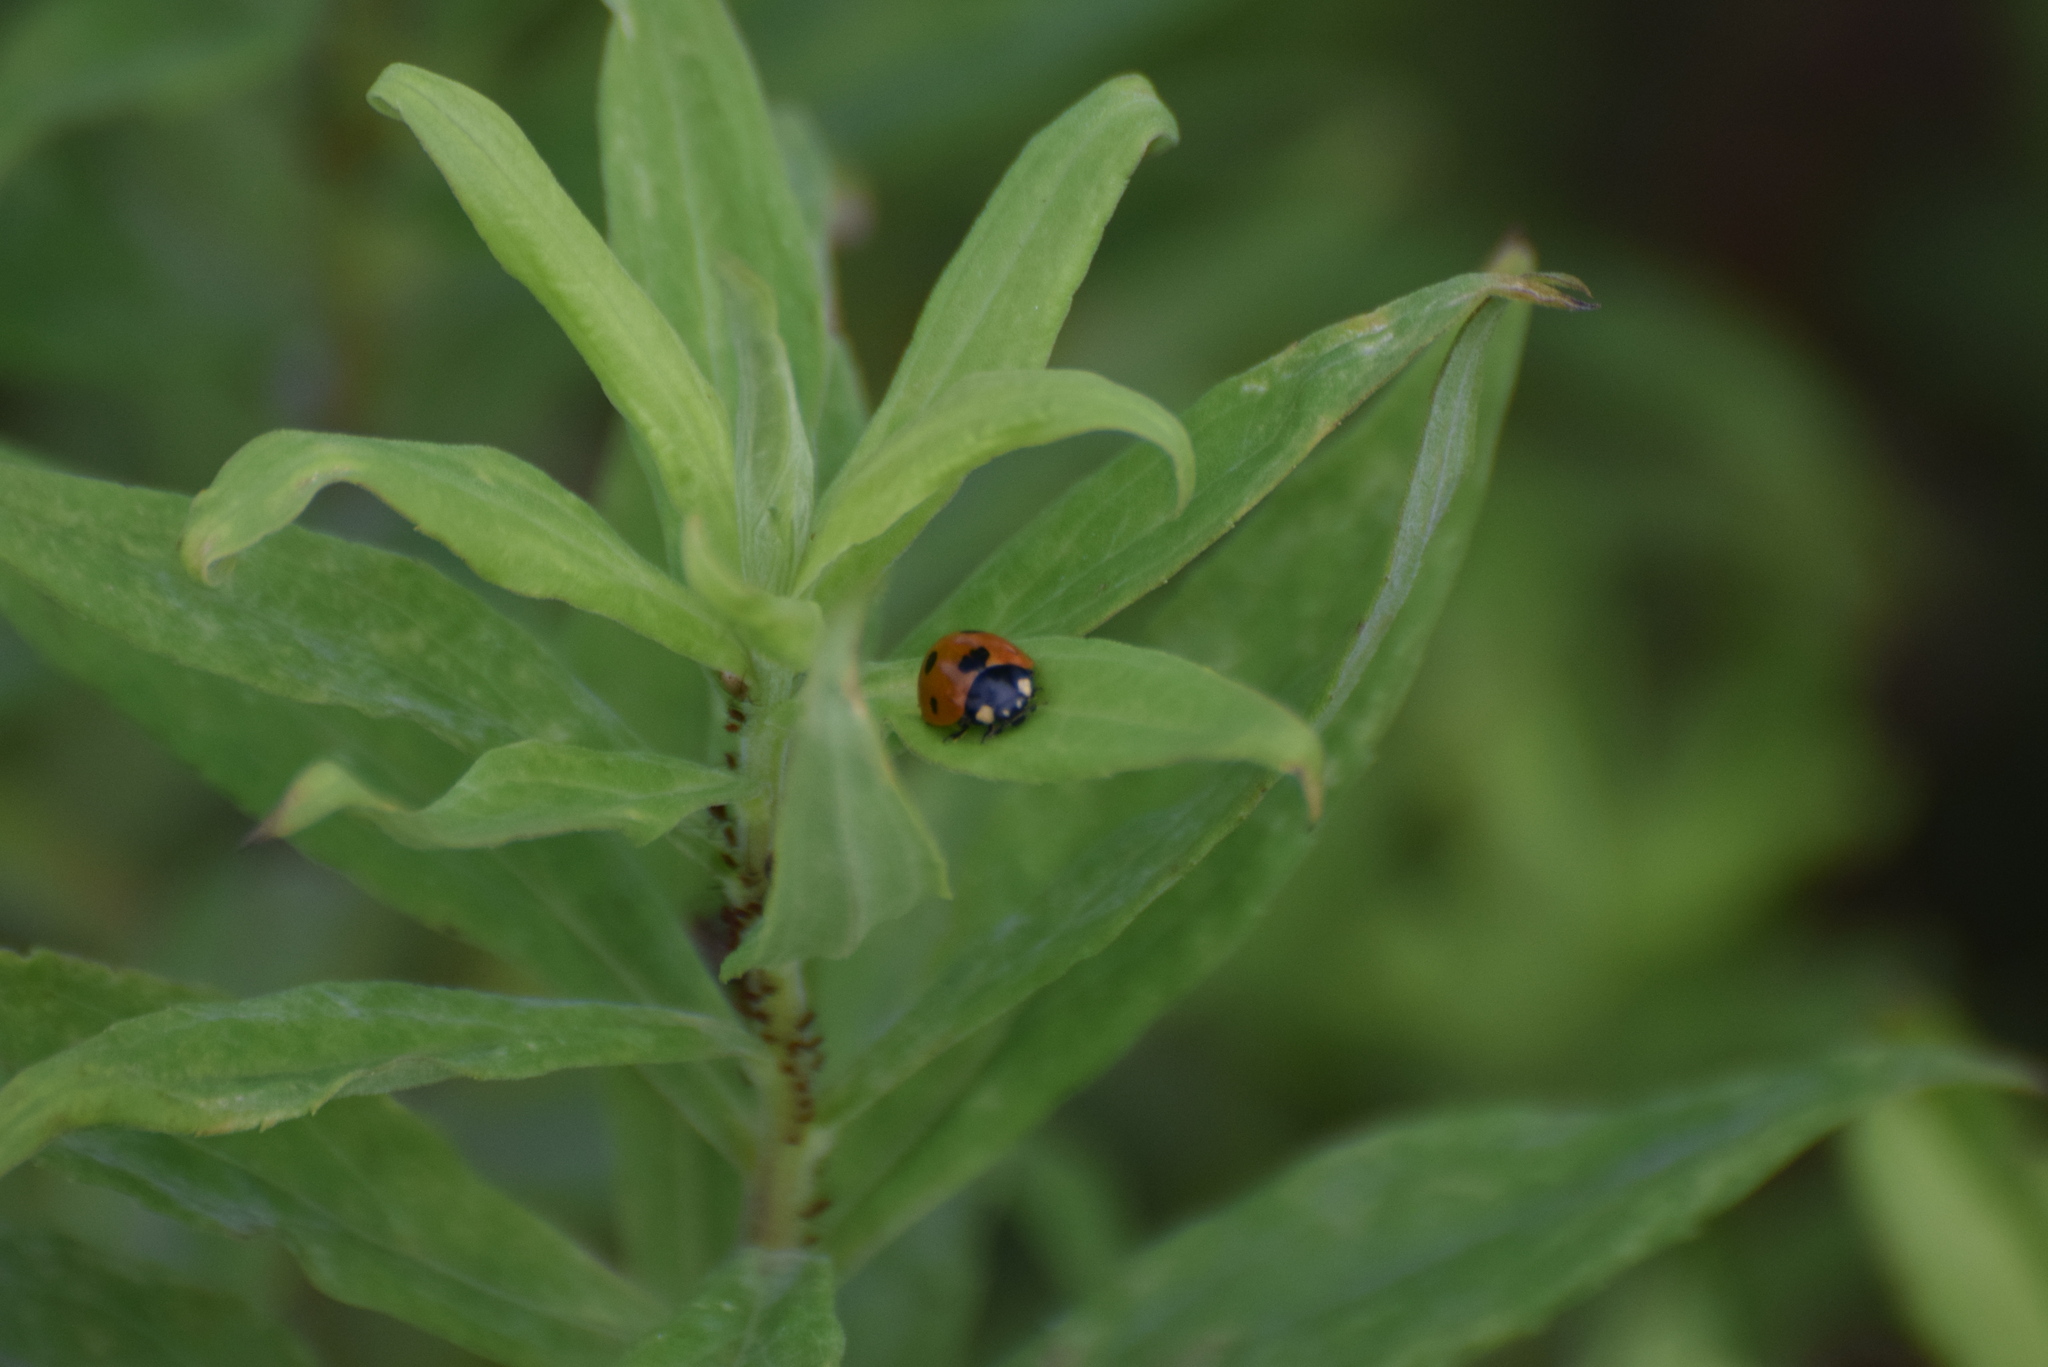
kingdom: Animalia
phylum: Arthropoda
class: Insecta
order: Coleoptera
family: Coccinellidae
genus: Coccinella
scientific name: Coccinella septempunctata
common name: Sevenspotted lady beetle
